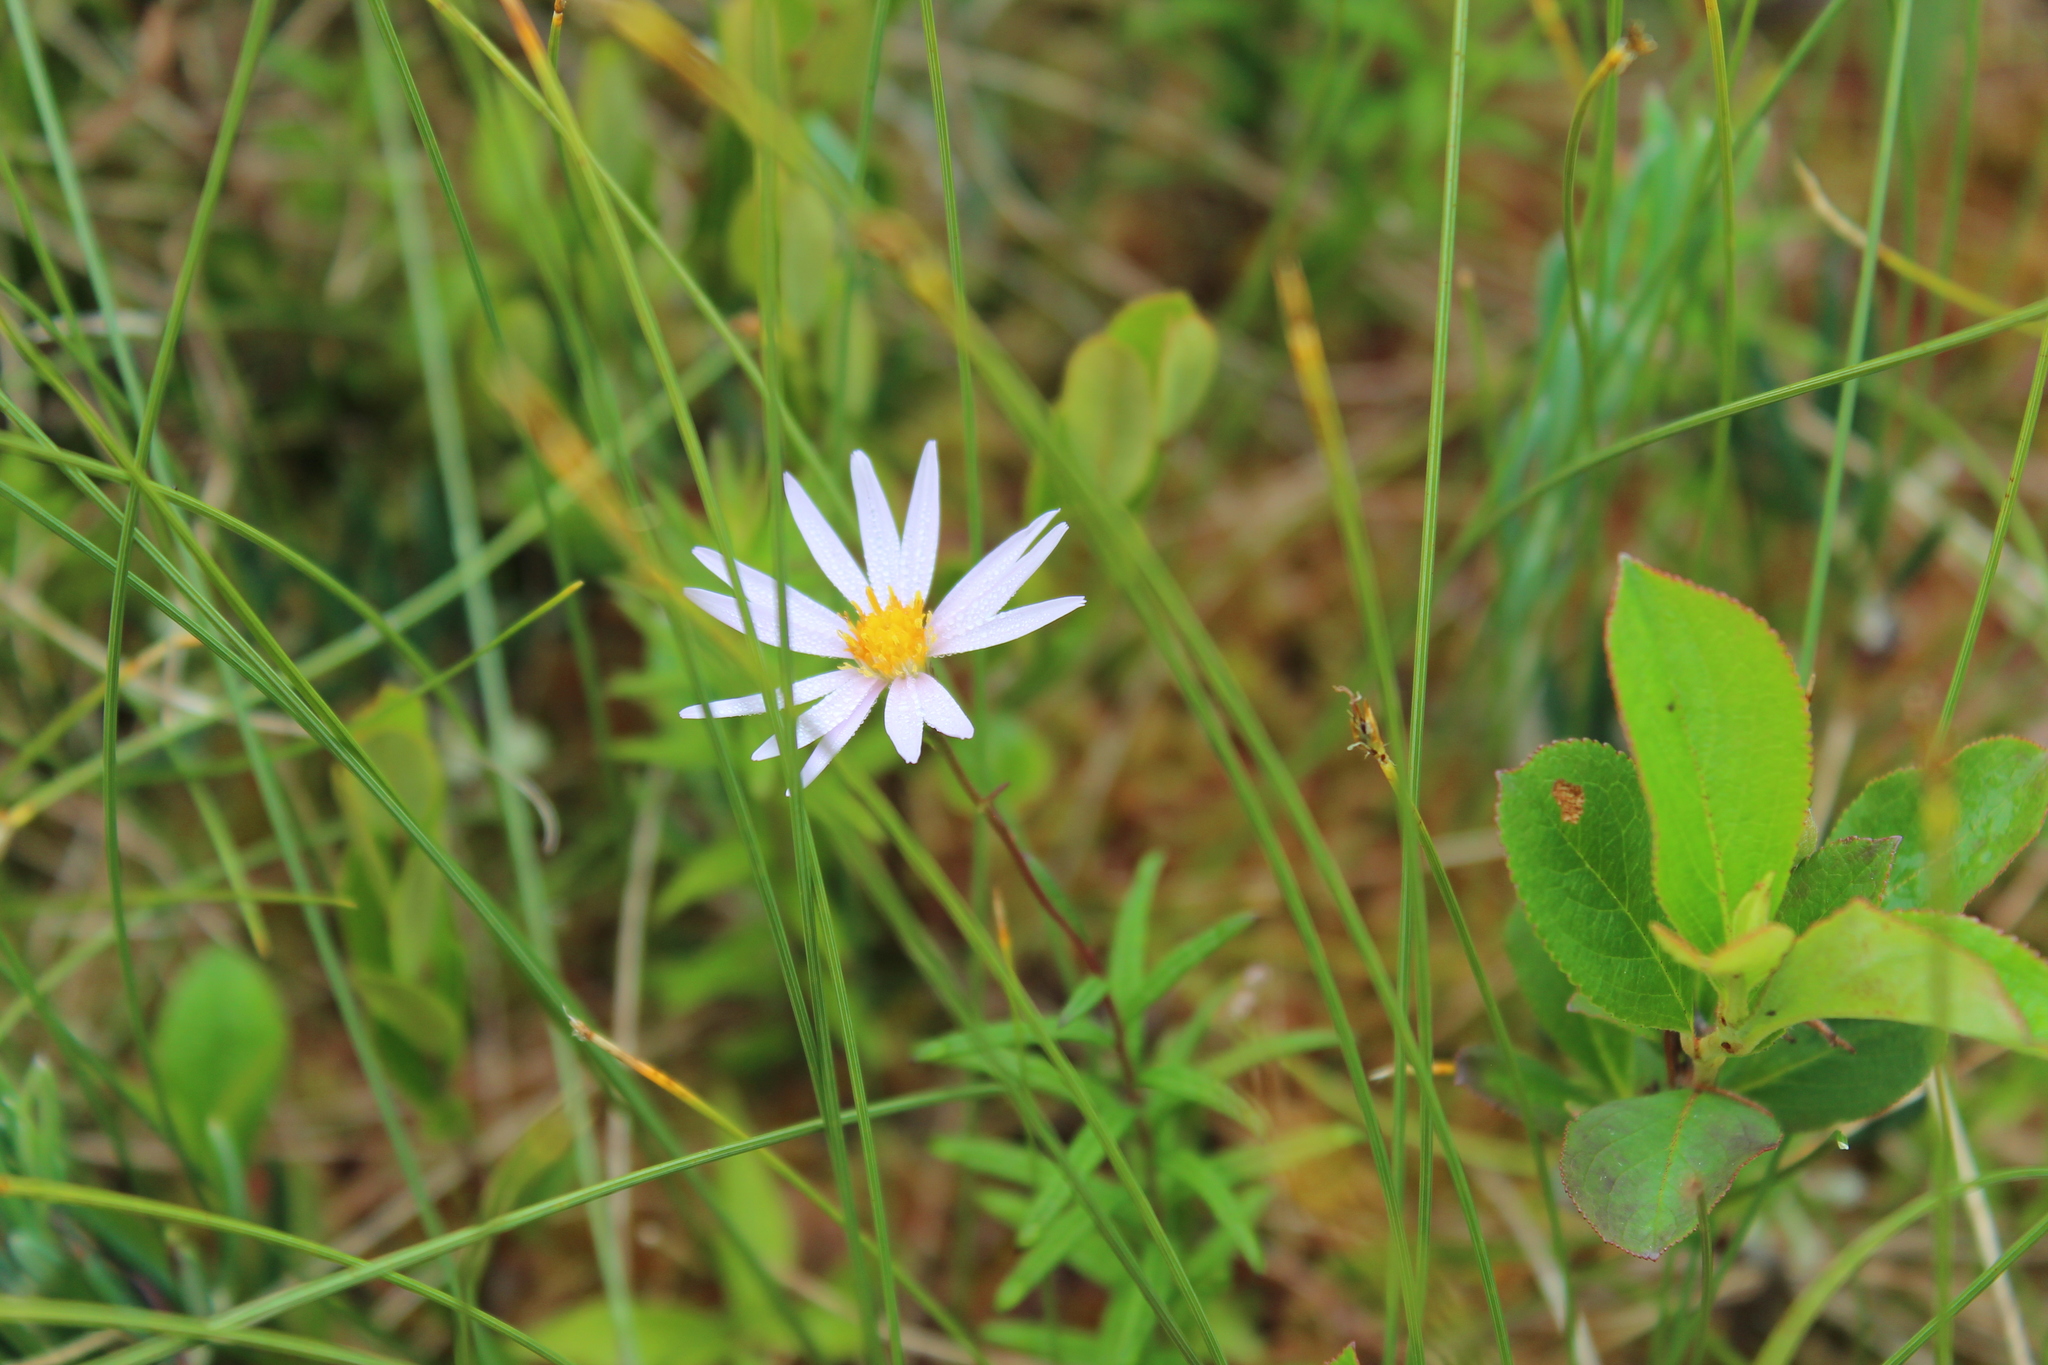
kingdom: Plantae
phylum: Tracheophyta
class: Magnoliopsida
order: Asterales
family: Asteraceae
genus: Oclemena
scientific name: Oclemena nemoralis
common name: Bog aster
